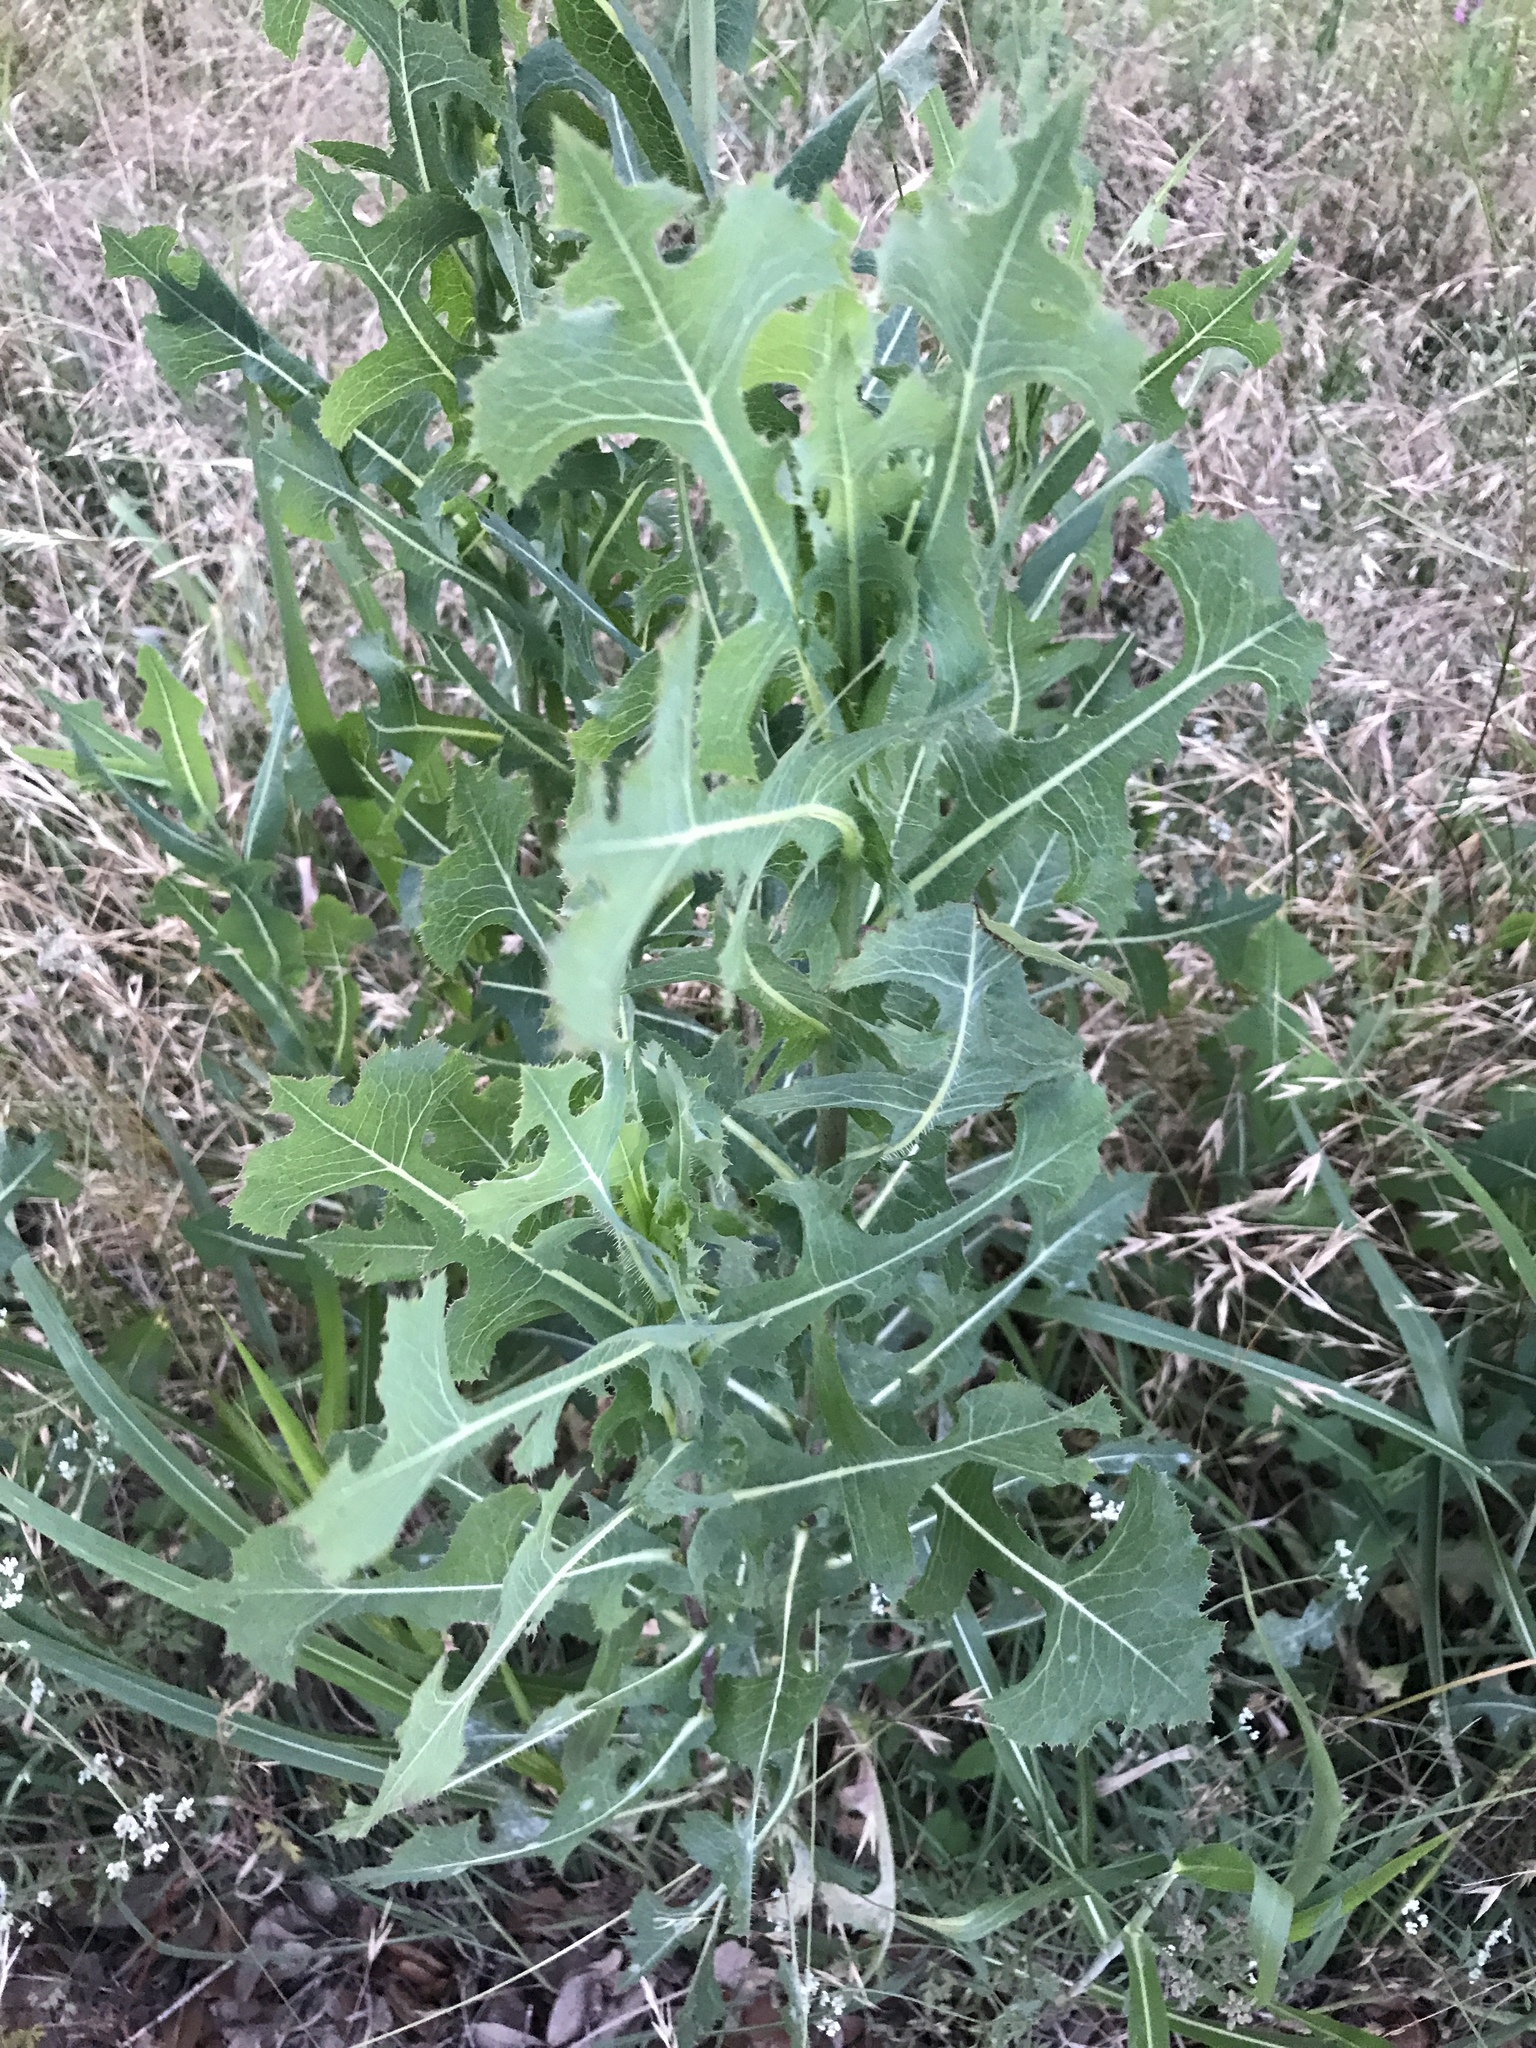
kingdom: Plantae
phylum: Tracheophyta
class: Magnoliopsida
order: Asterales
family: Asteraceae
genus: Lactuca
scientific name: Lactuca serriola
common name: Prickly lettuce
